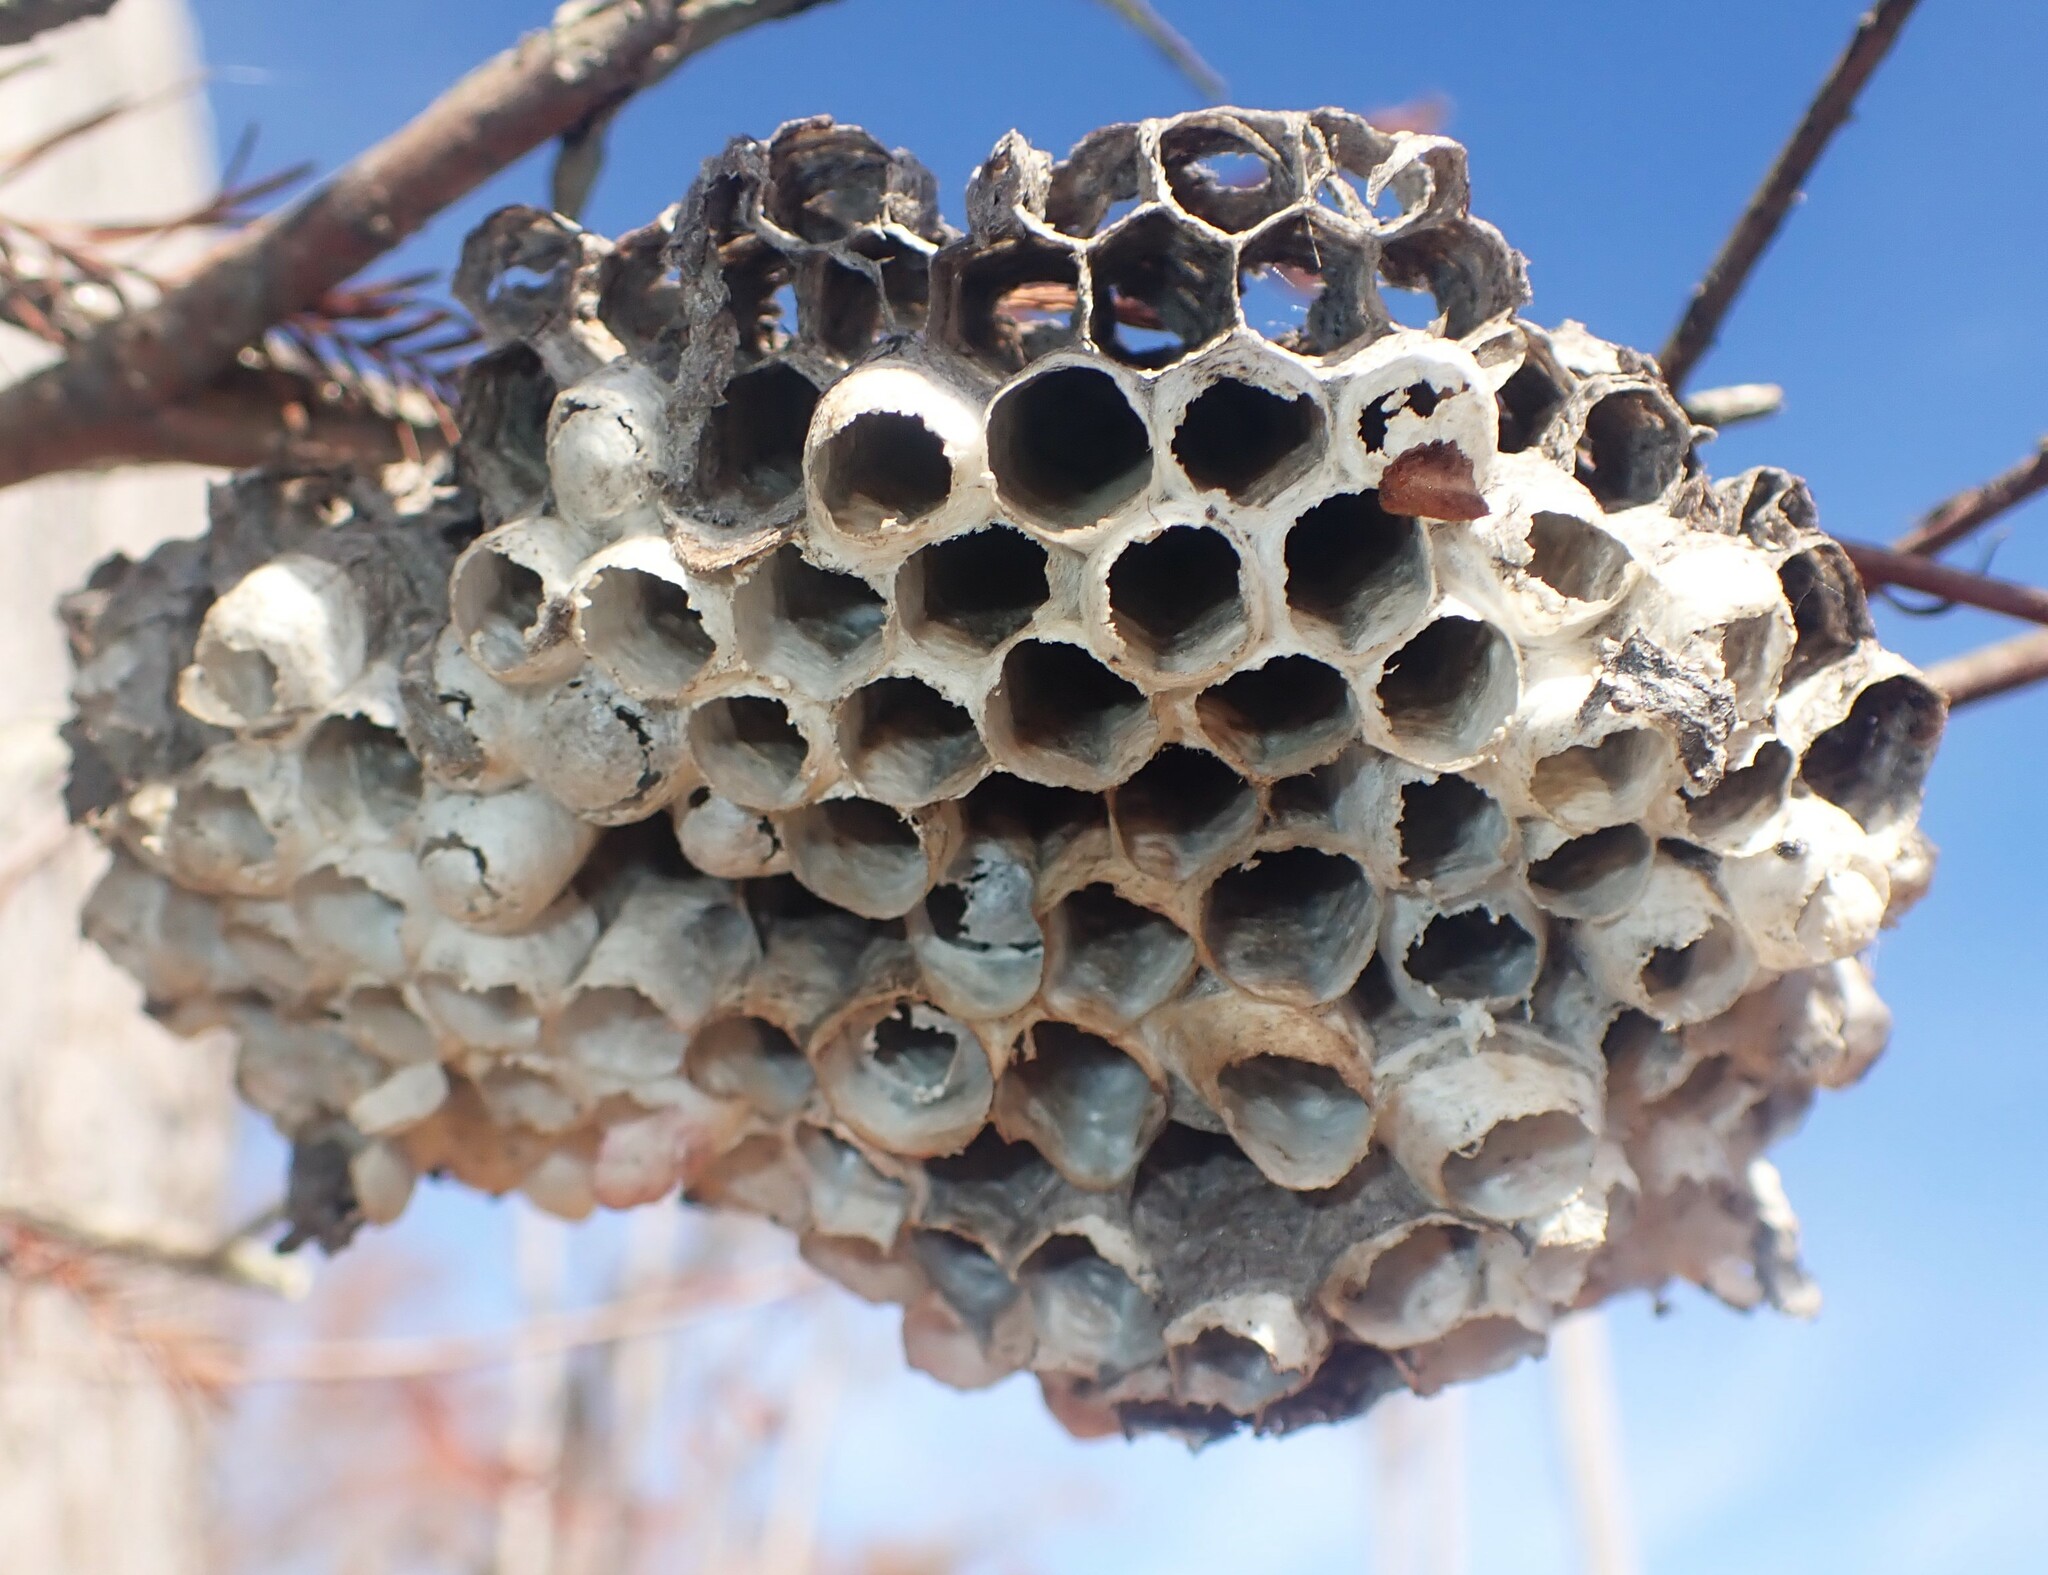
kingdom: Animalia
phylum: Arthropoda
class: Insecta
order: Hymenoptera
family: Eumenidae
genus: Polistes
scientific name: Polistes
